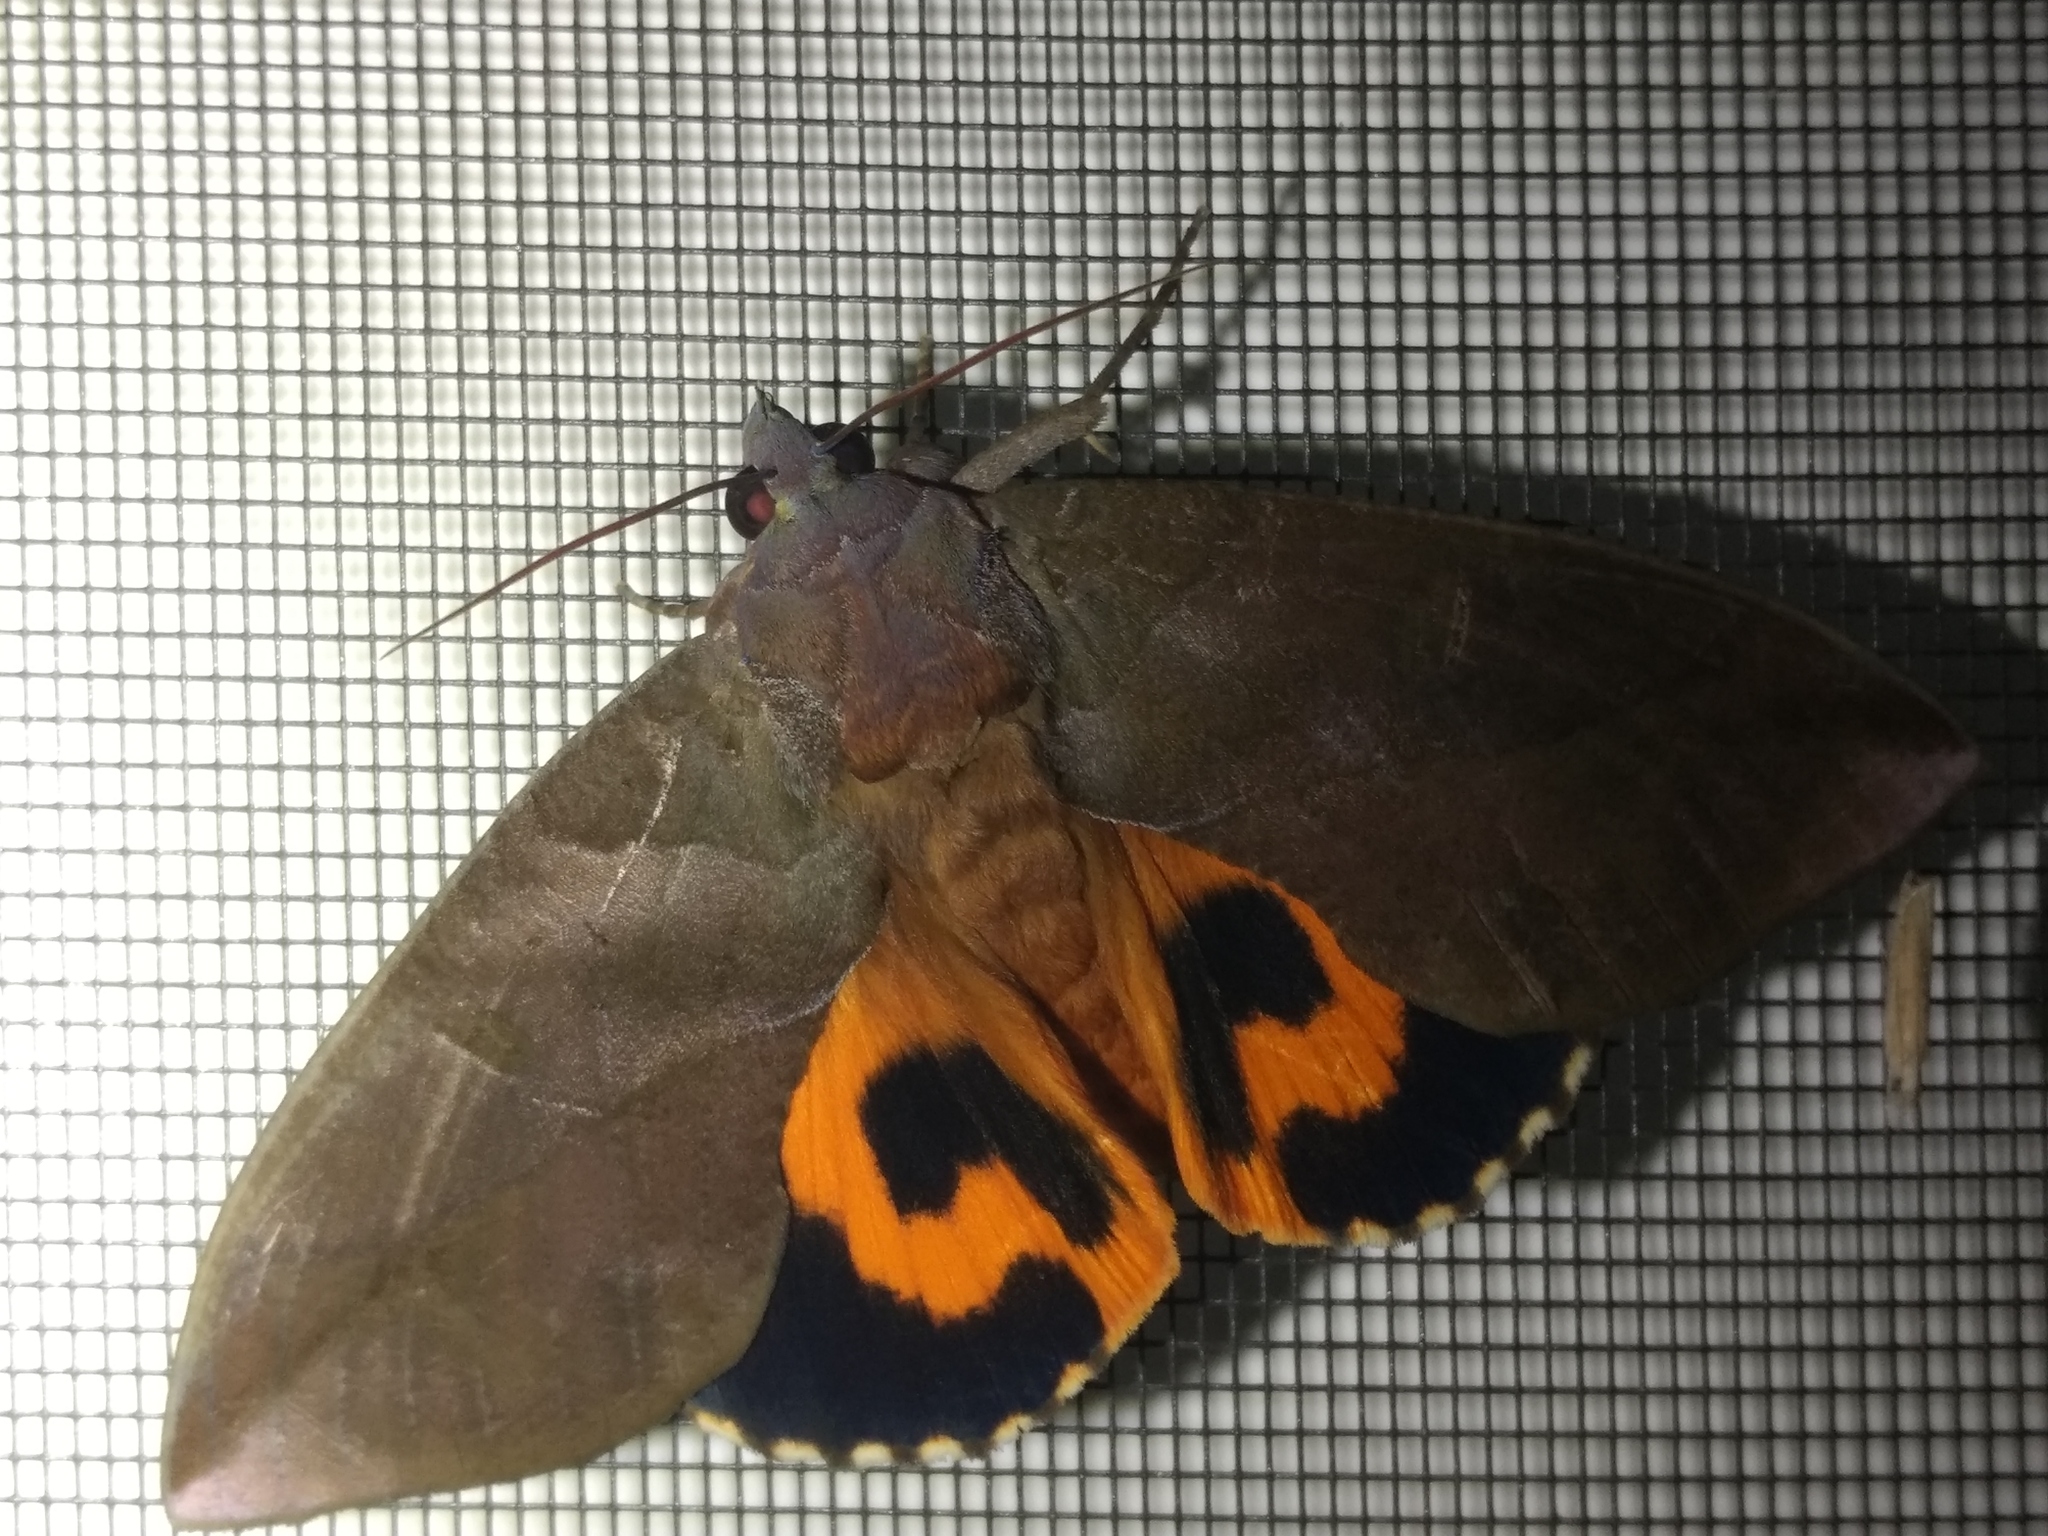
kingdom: Animalia
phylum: Arthropoda
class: Insecta
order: Lepidoptera
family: Erebidae
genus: Eudocima
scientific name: Eudocima phalonia
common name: Wasp
